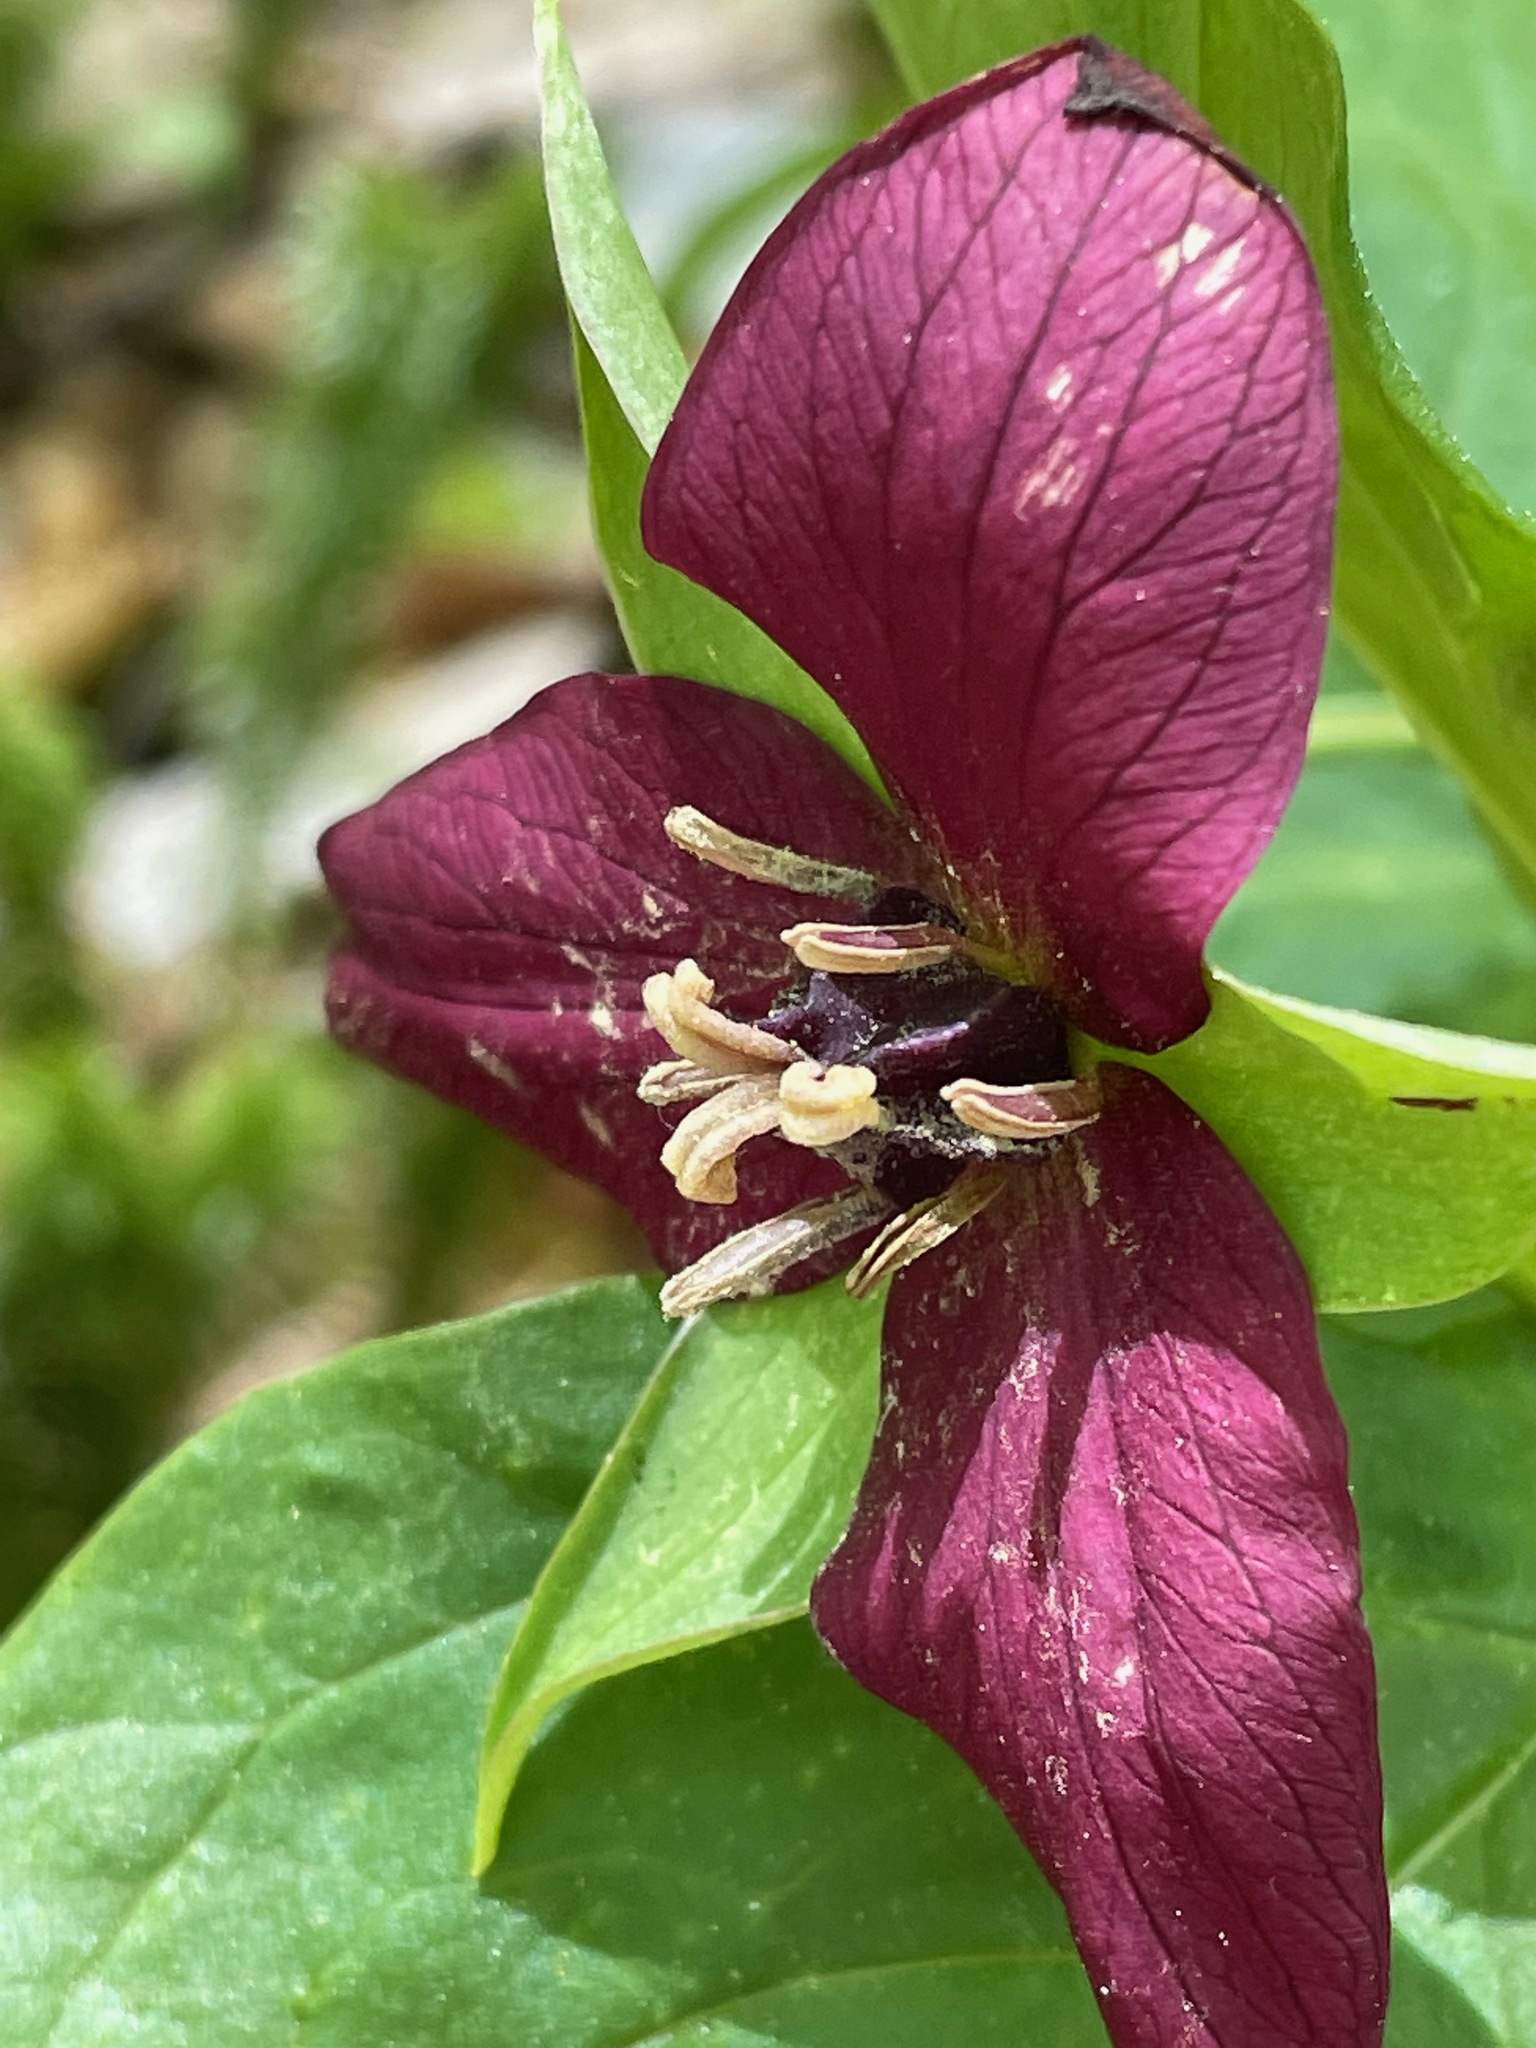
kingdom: Plantae
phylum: Tracheophyta
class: Liliopsida
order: Liliales
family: Melanthiaceae
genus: Trillium
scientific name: Trillium erectum
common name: Purple trillium
